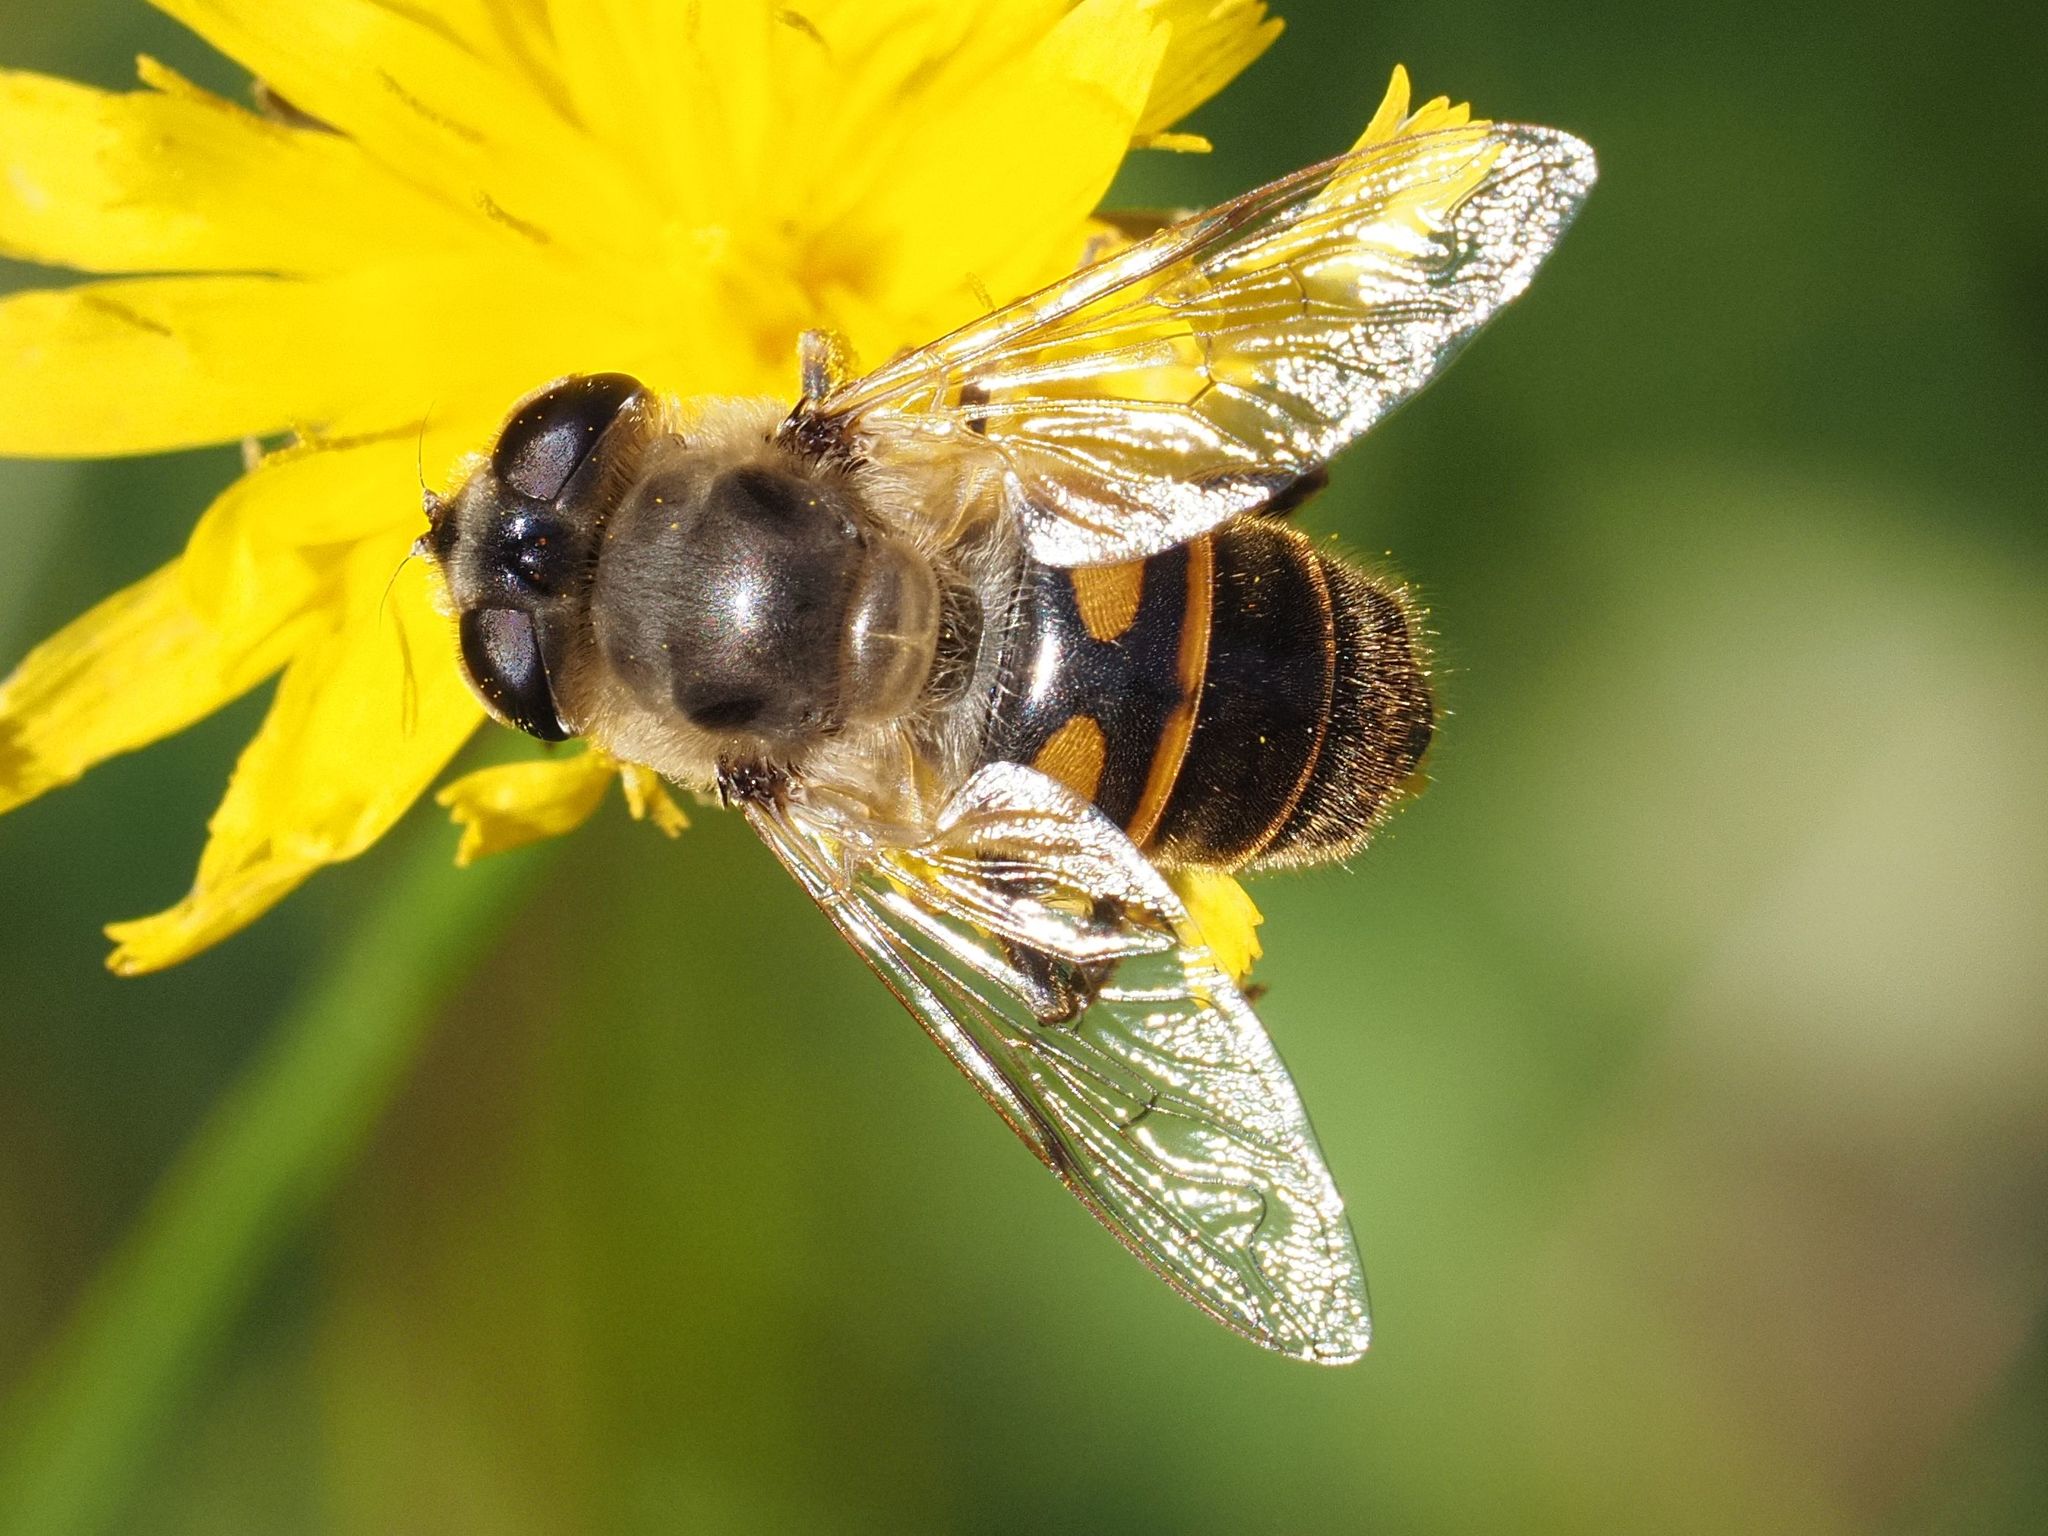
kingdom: Animalia
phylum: Arthropoda
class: Insecta
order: Diptera
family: Syrphidae
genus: Eristalis
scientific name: Eristalis tenax
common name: Drone fly
